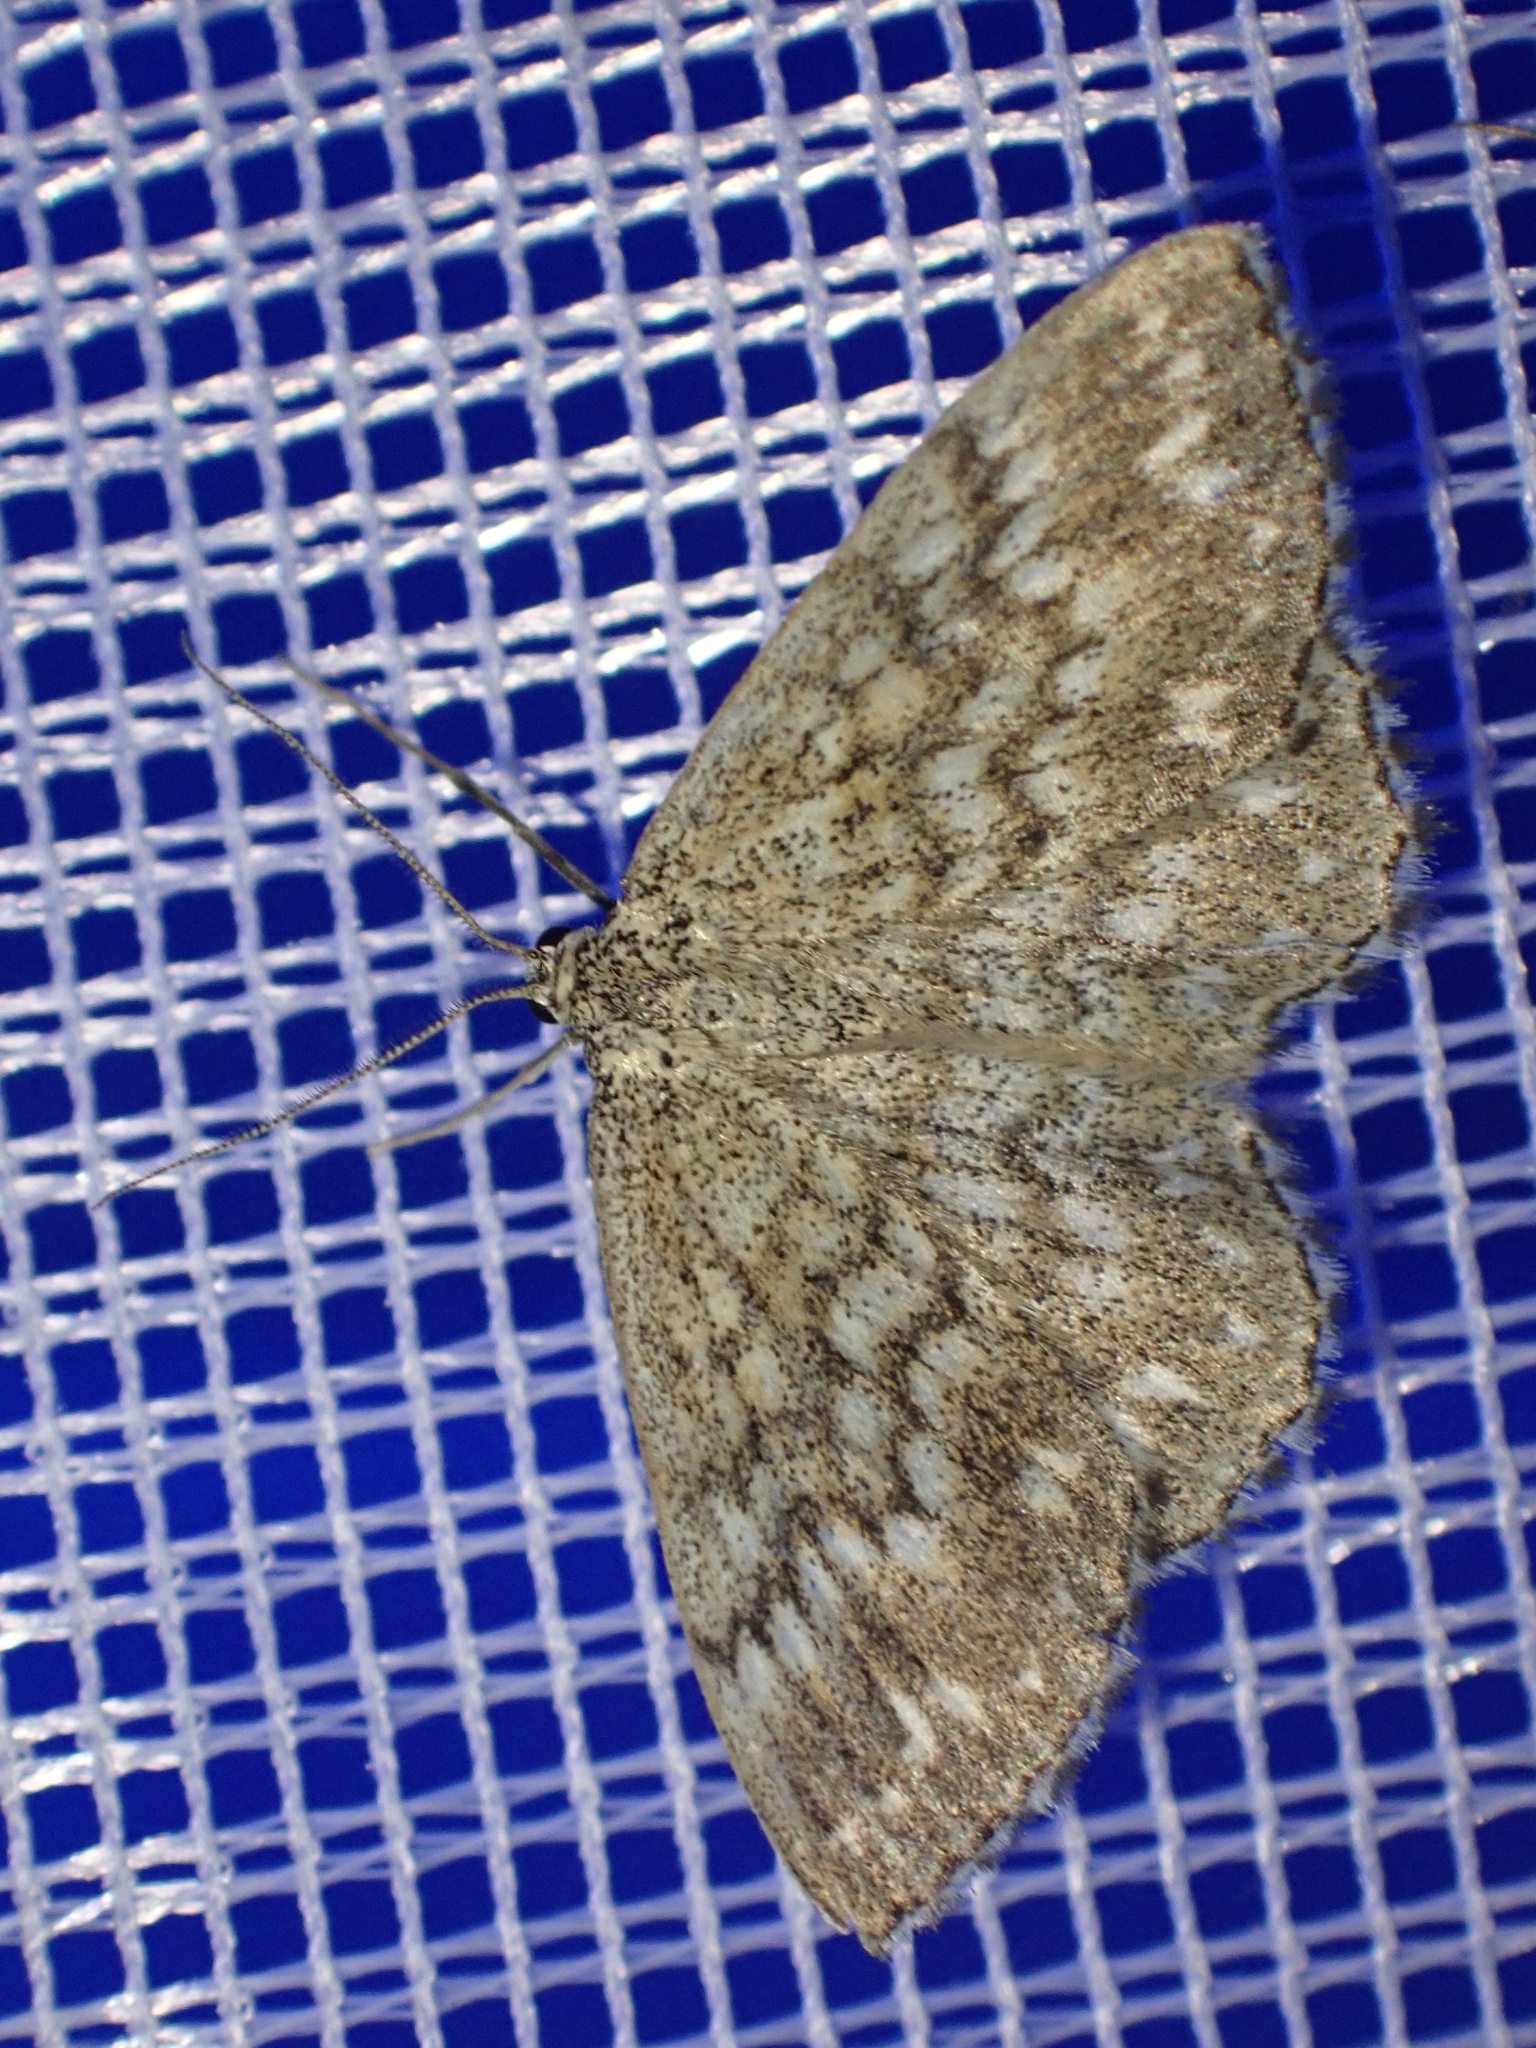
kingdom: Animalia
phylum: Arthropoda
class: Insecta
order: Lepidoptera
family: Geometridae
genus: Scopula
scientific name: Scopula tessellaria
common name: Dusky-brown wave
